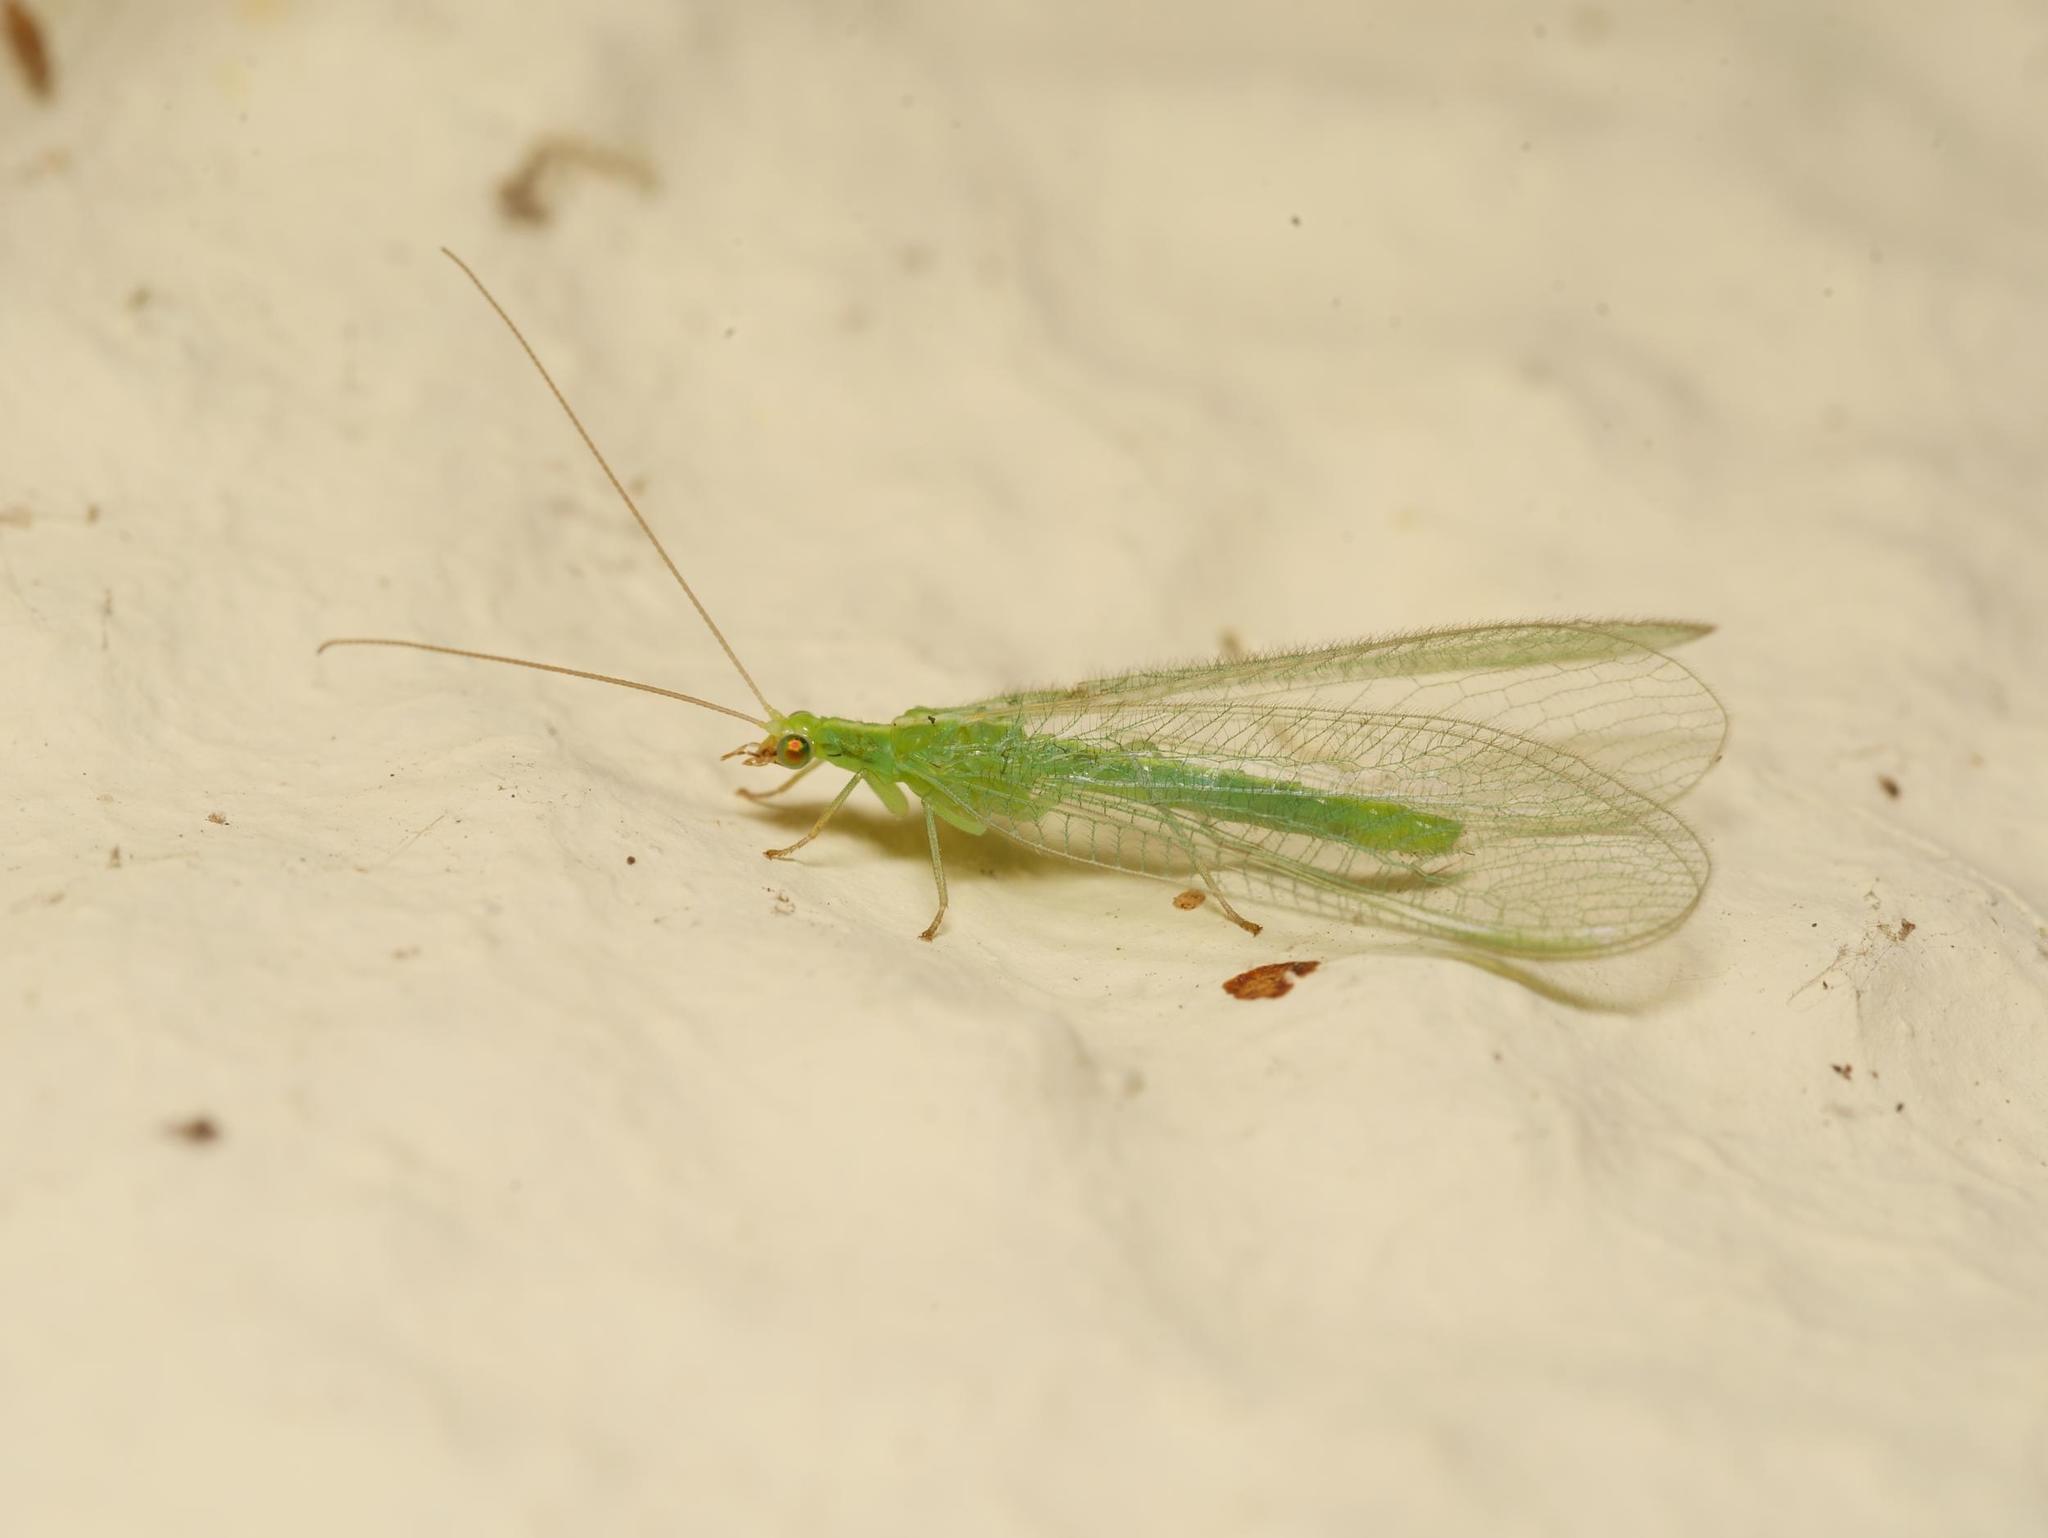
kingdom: Animalia
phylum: Arthropoda
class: Insecta
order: Neuroptera
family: Chrysopidae
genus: Chrysoperla
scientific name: Chrysoperla
